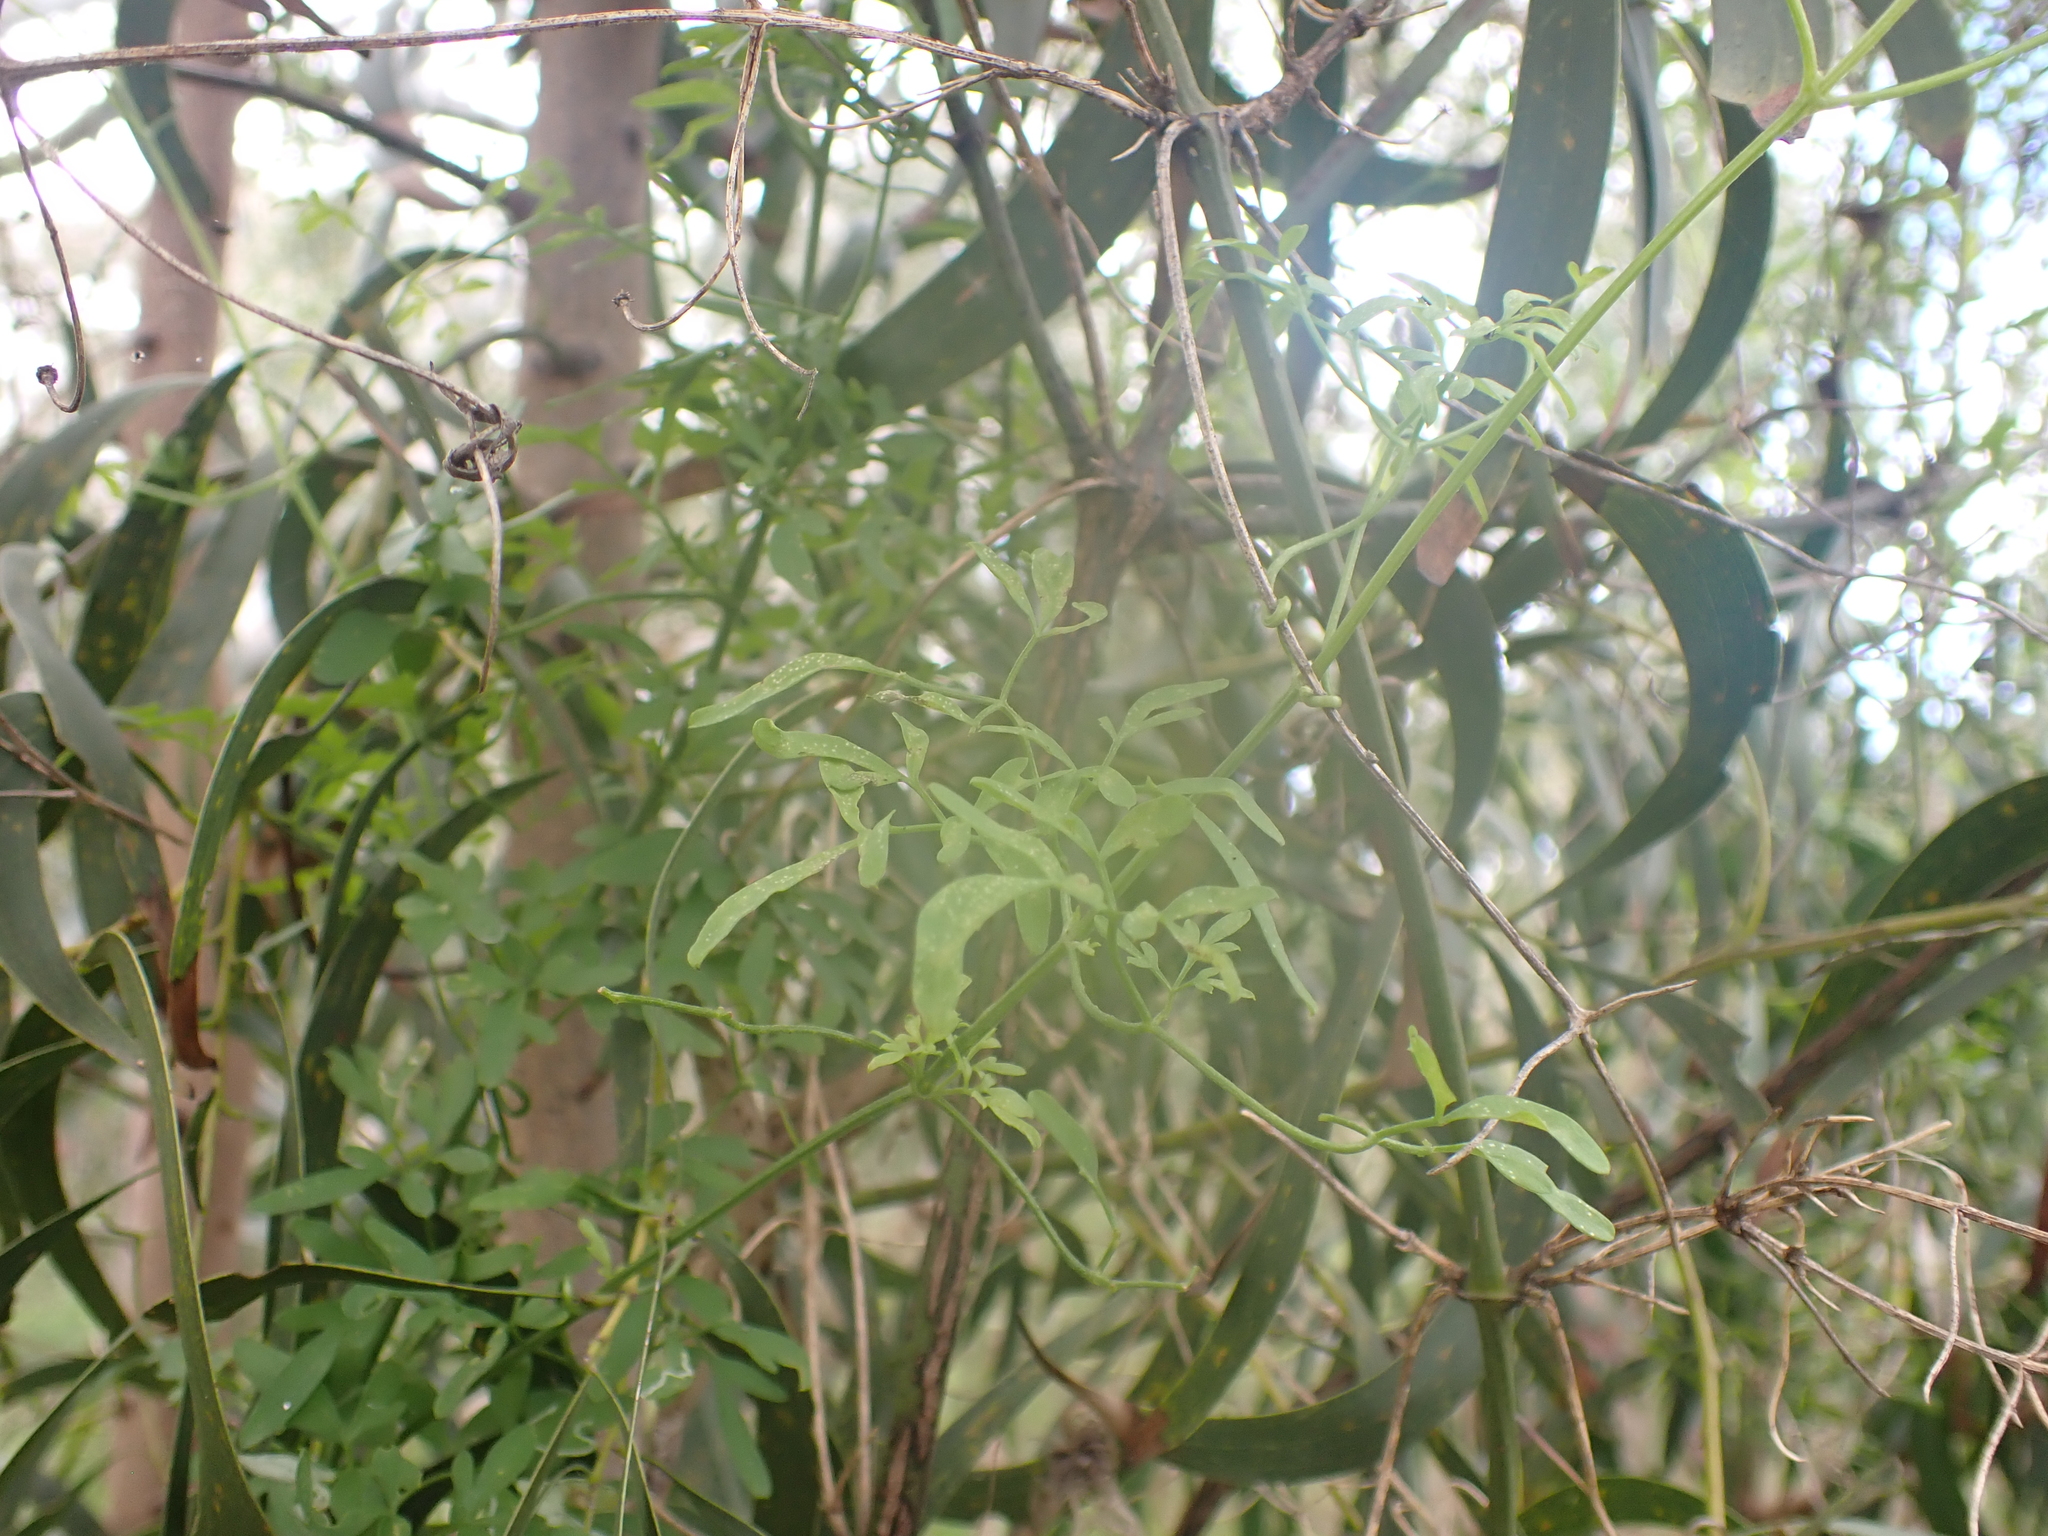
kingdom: Plantae
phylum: Tracheophyta
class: Magnoliopsida
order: Ranunculales
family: Ranunculaceae
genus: Clematis
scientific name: Clematis microphylla
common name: Headachevine
